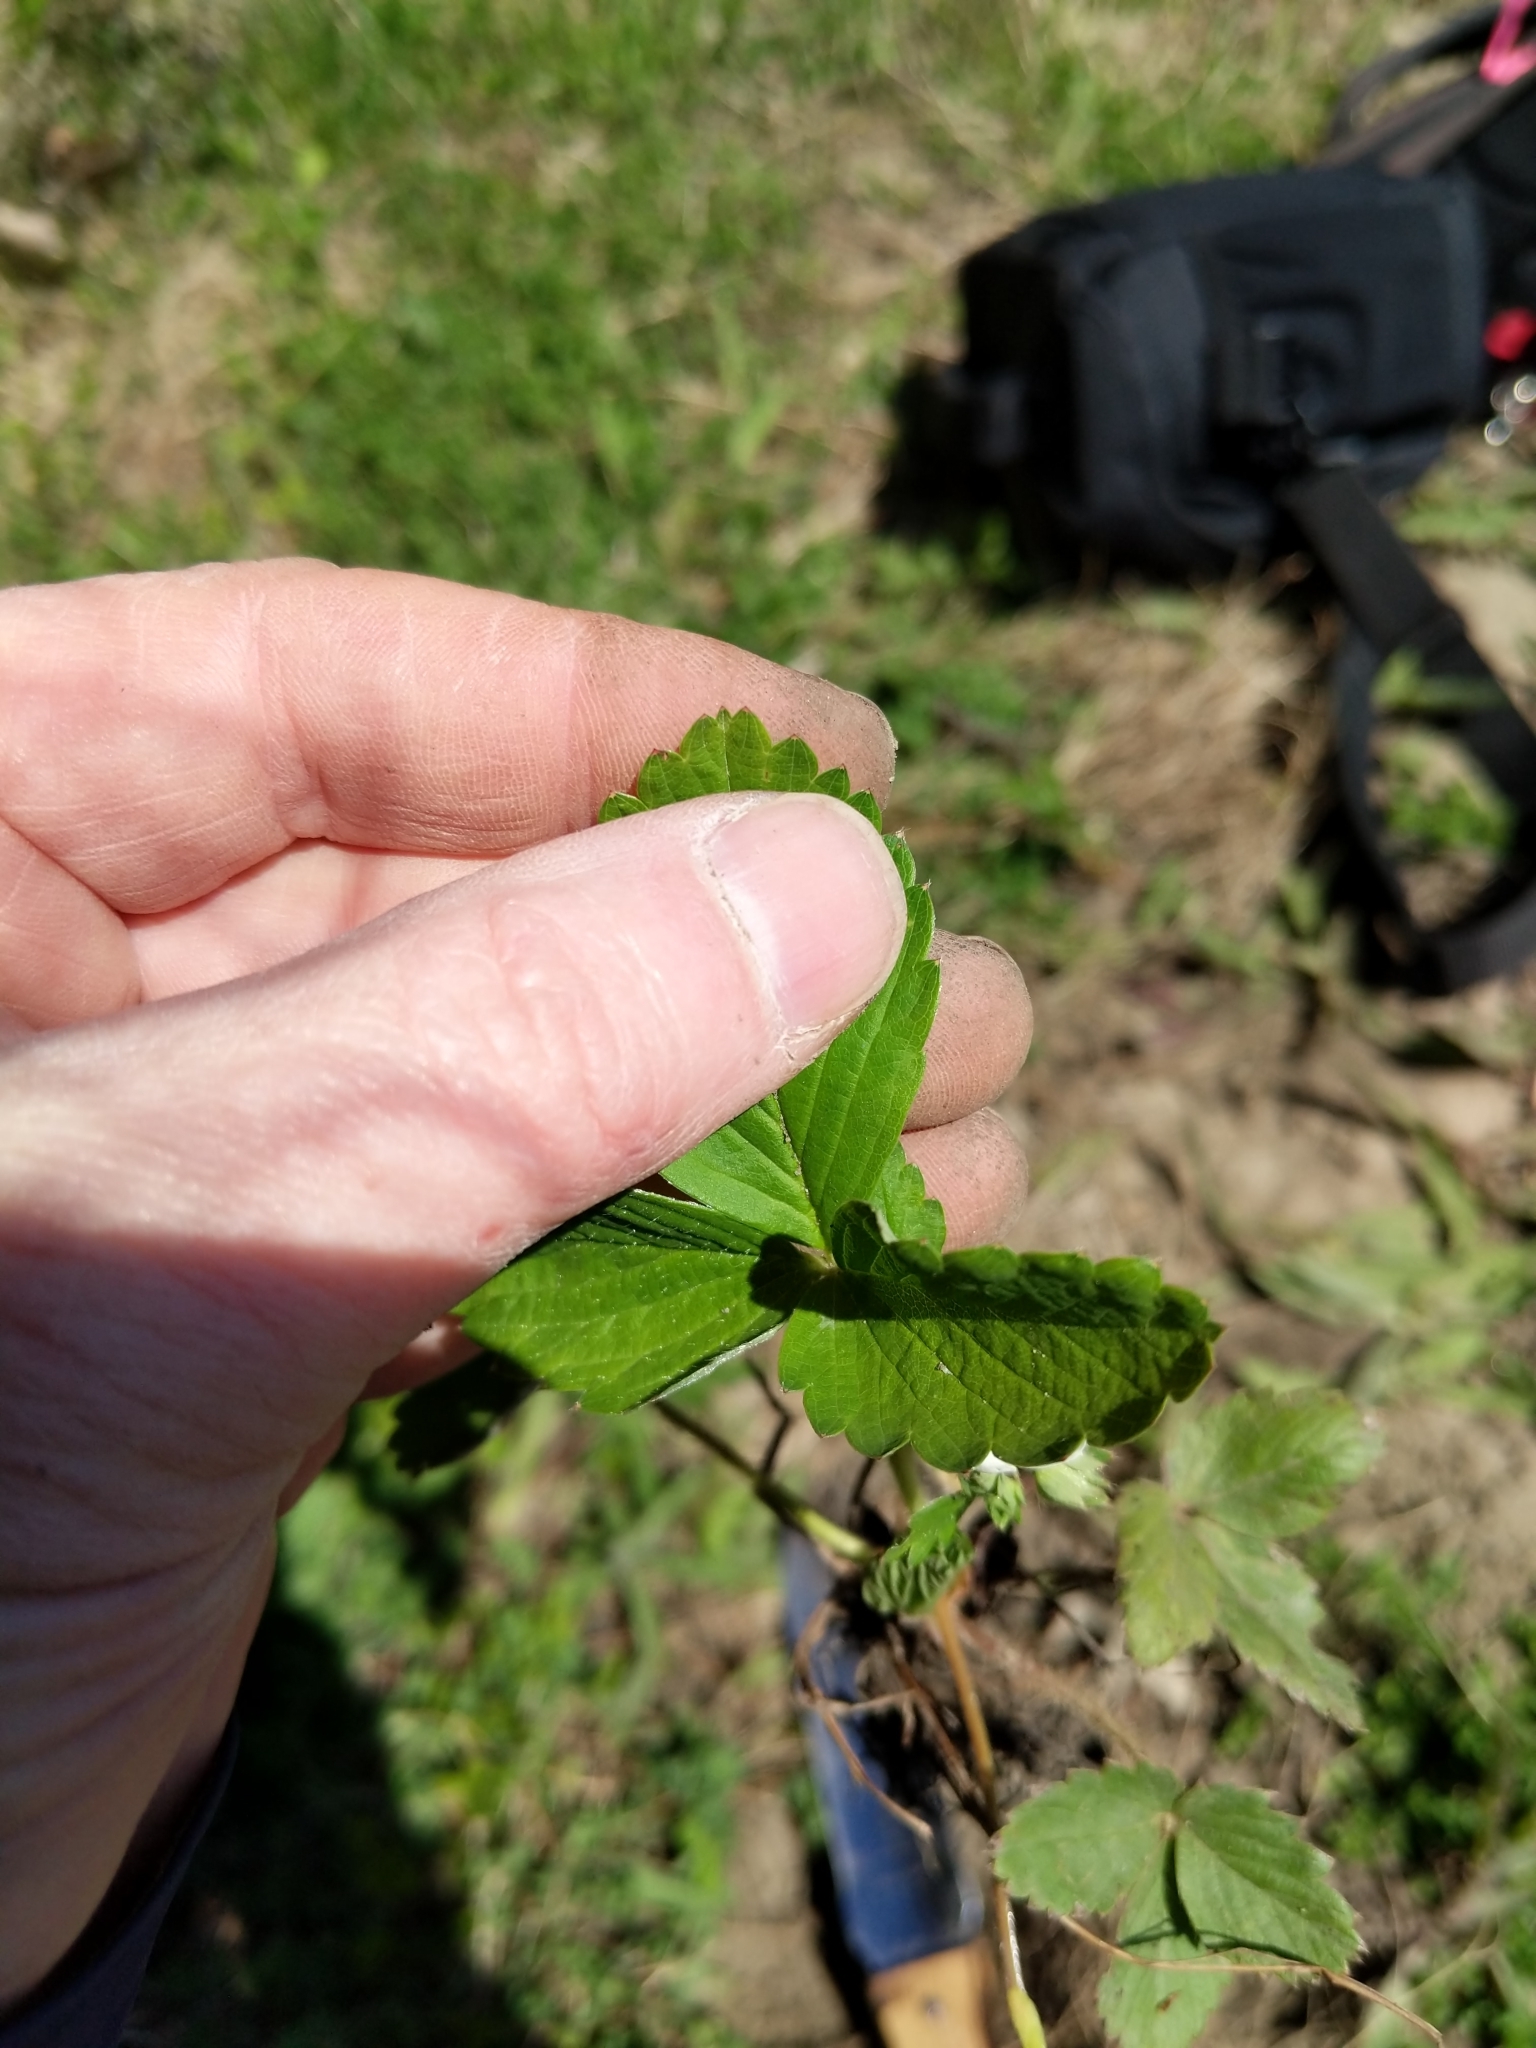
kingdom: Plantae
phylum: Tracheophyta
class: Magnoliopsida
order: Rosales
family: Rosaceae
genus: Fragaria
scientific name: Fragaria virginiana
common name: Thickleaved wild strawberry
